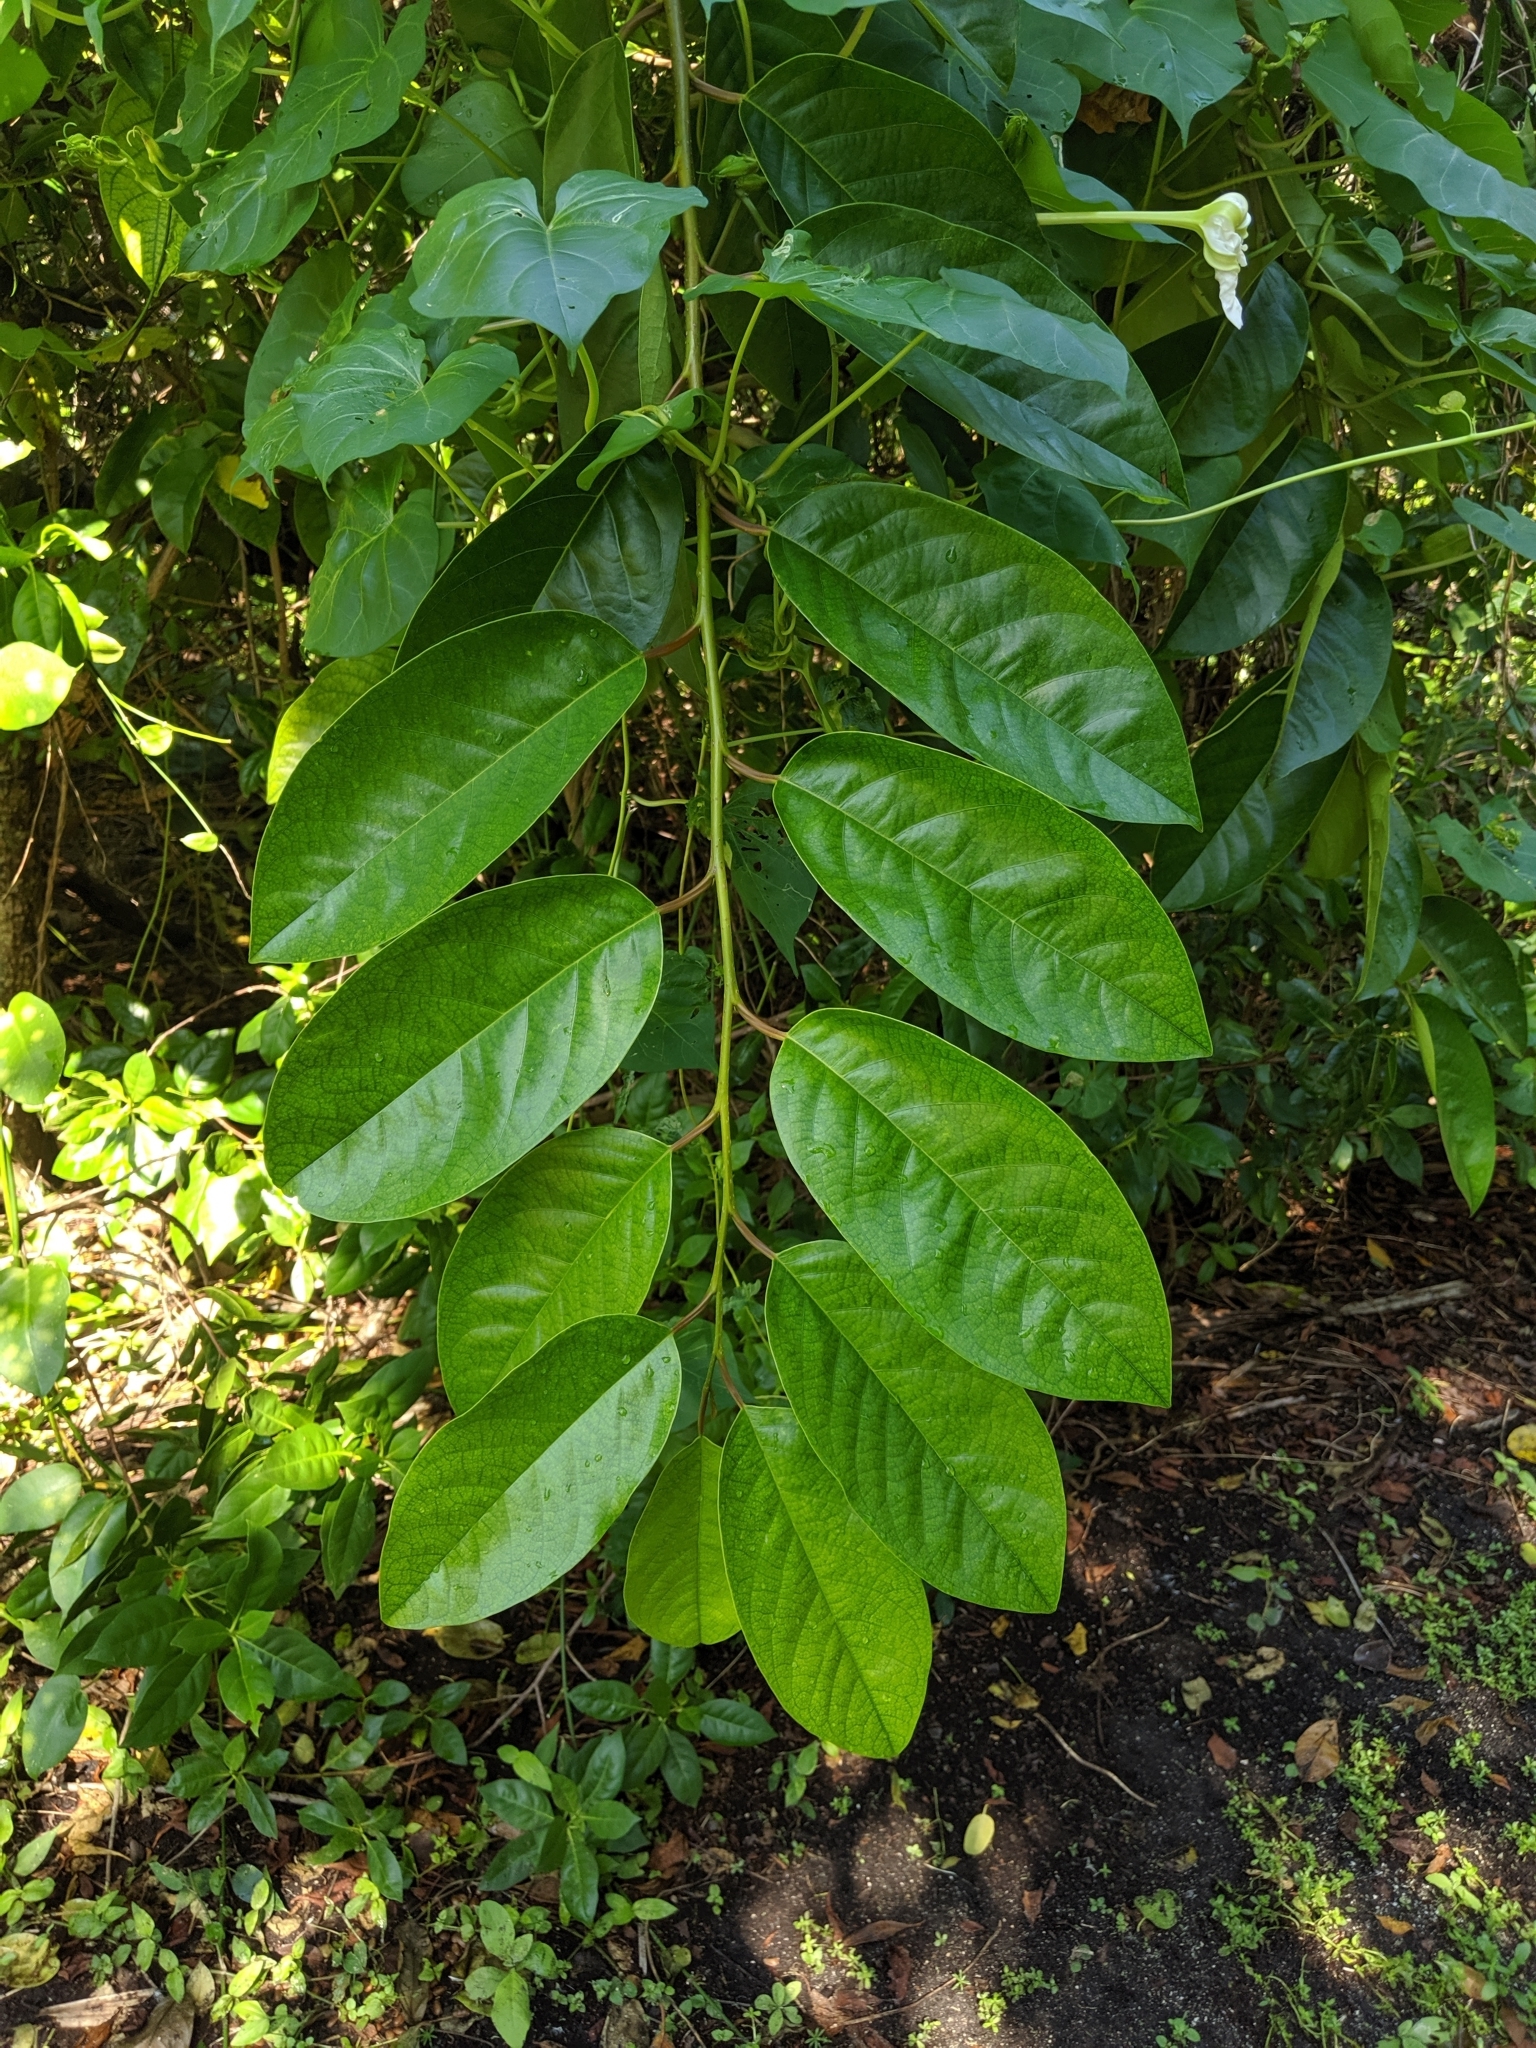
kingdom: Plantae
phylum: Tracheophyta
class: Magnoliopsida
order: Fabales
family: Fabaceae
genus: Dalbergia
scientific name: Dalbergia ecastaphyllum
